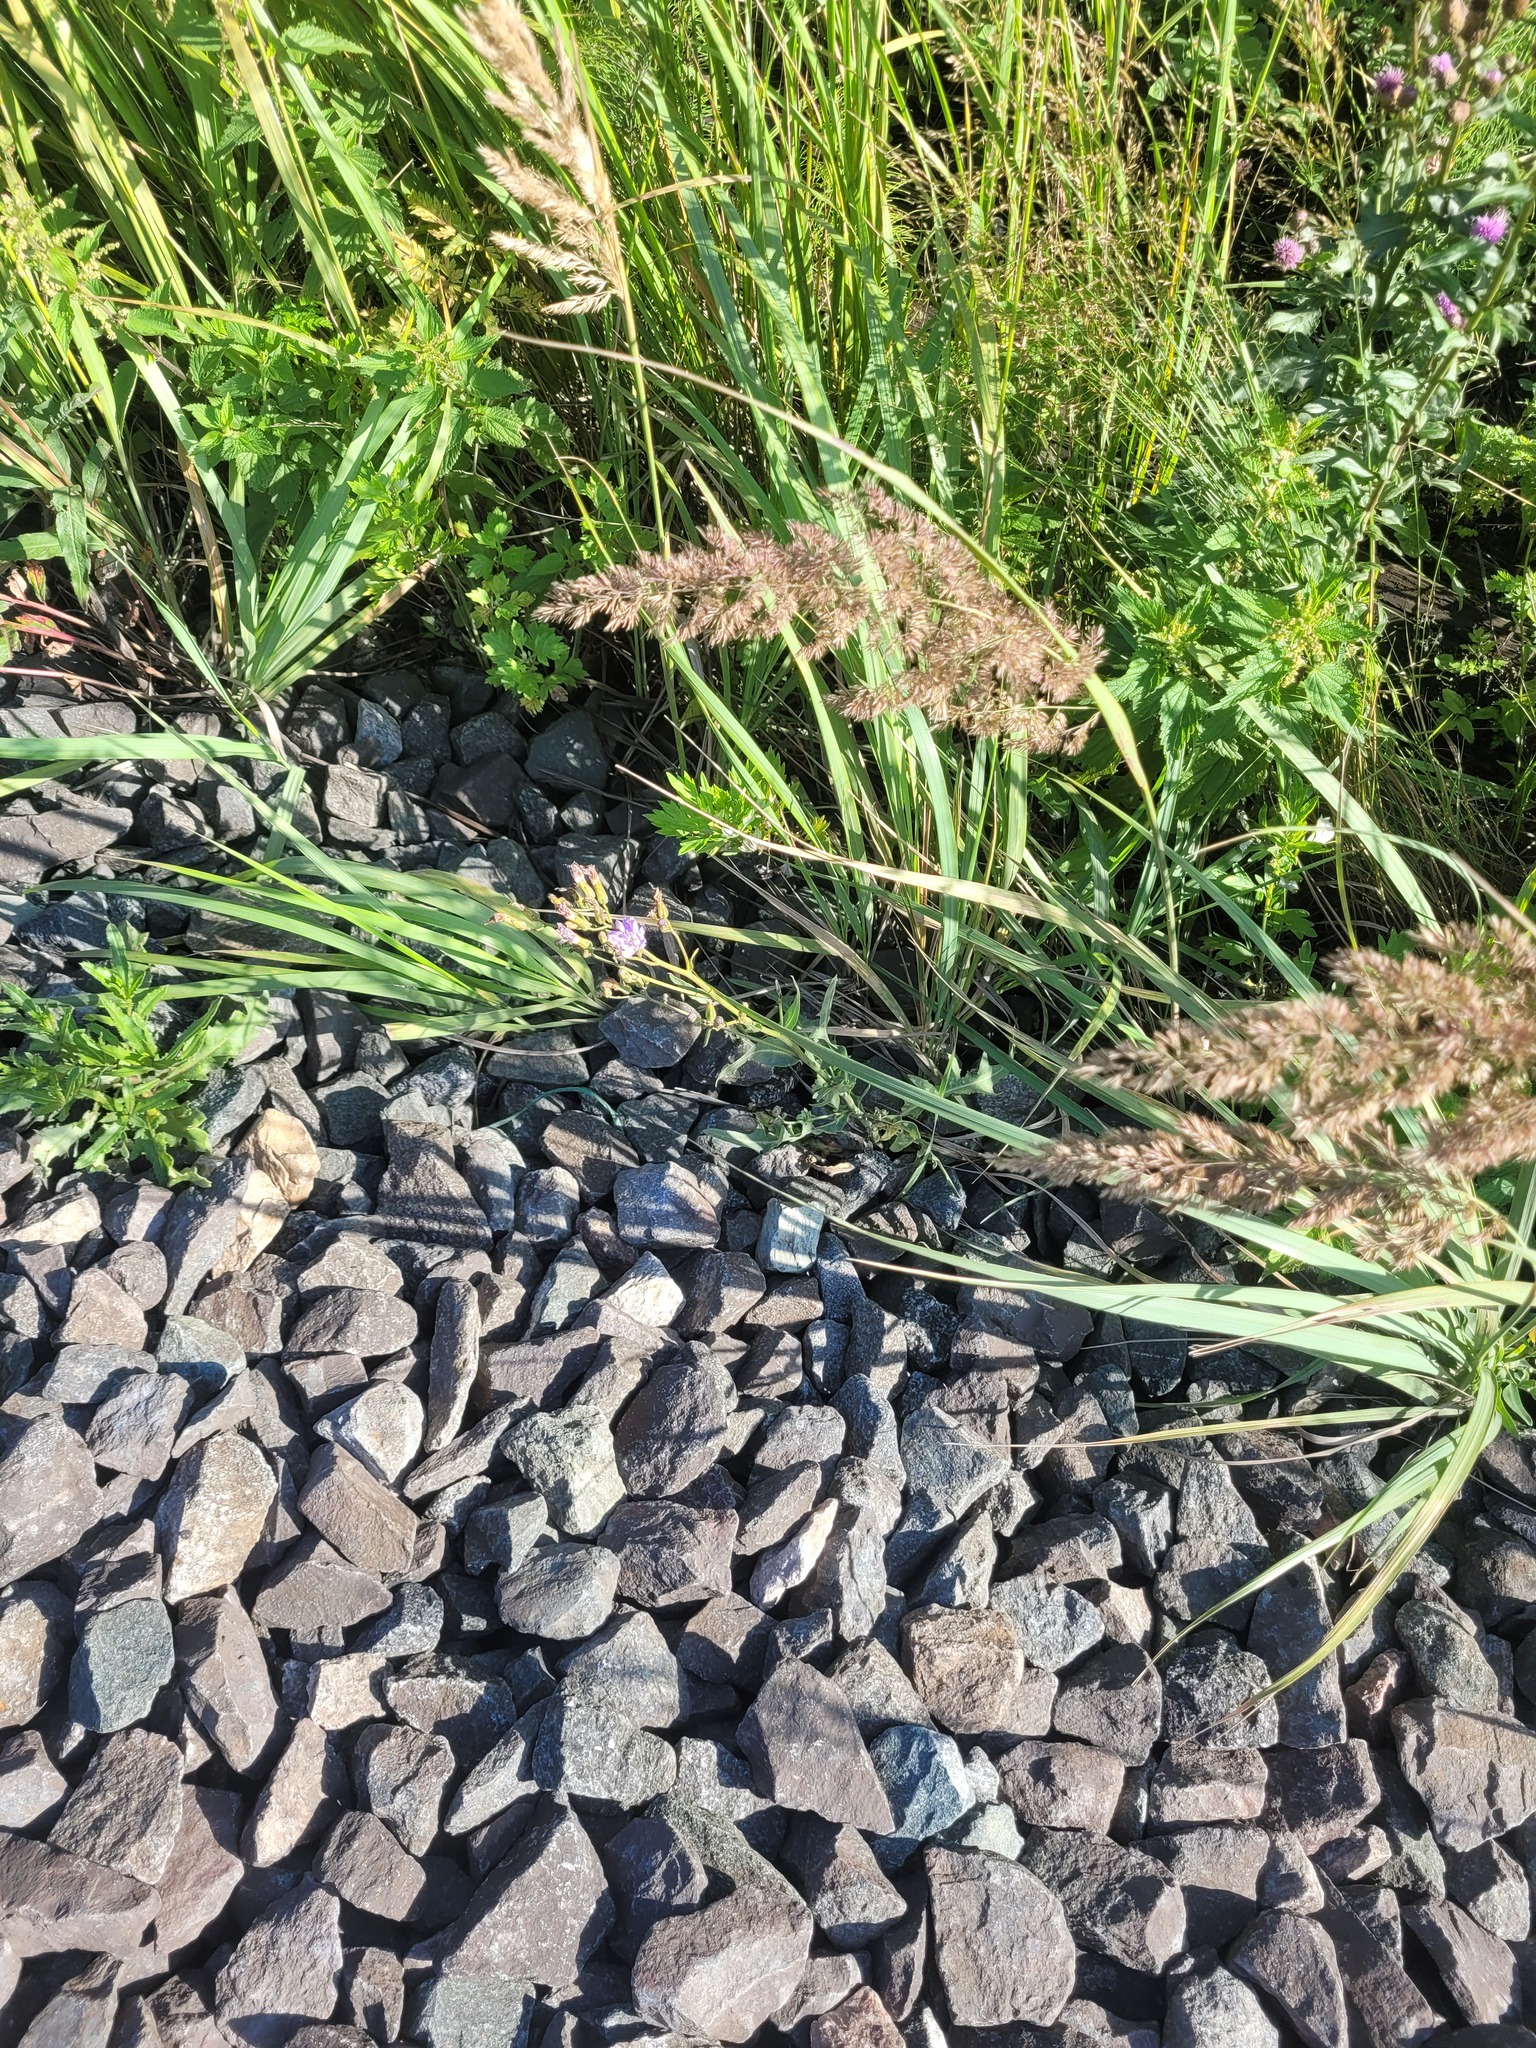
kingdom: Plantae
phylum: Tracheophyta
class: Magnoliopsida
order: Asterales
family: Asteraceae
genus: Lactuca
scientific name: Lactuca tatarica
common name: Blue lettuce
